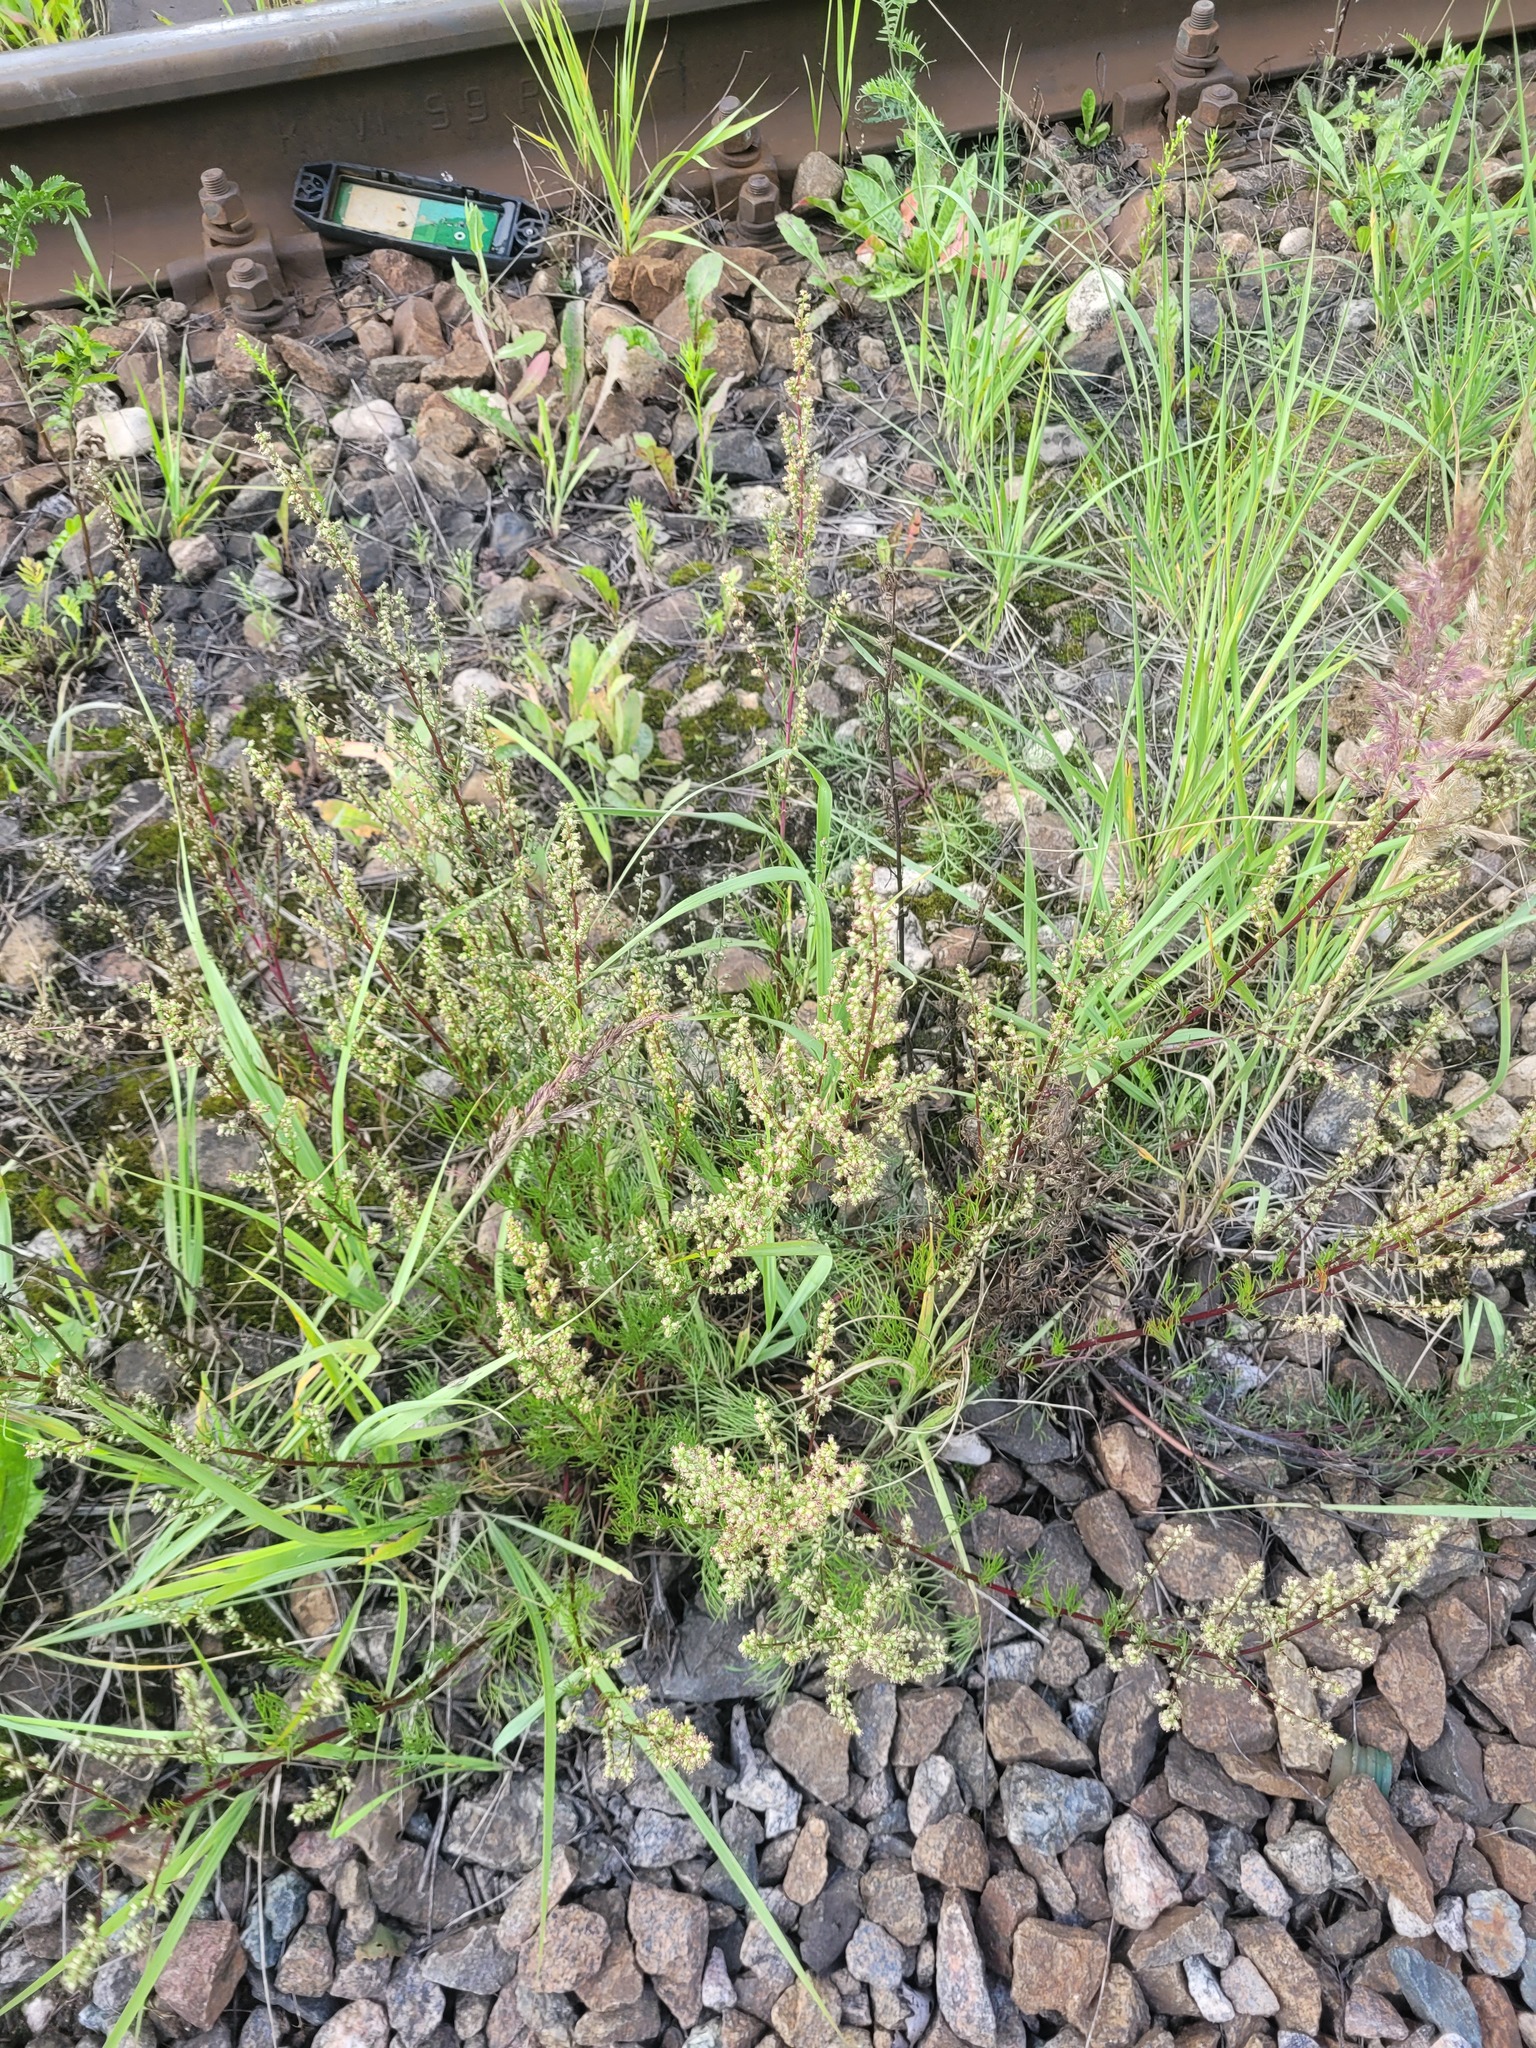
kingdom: Plantae
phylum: Tracheophyta
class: Magnoliopsida
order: Asterales
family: Asteraceae
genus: Artemisia
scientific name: Artemisia campestris
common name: Field wormwood
